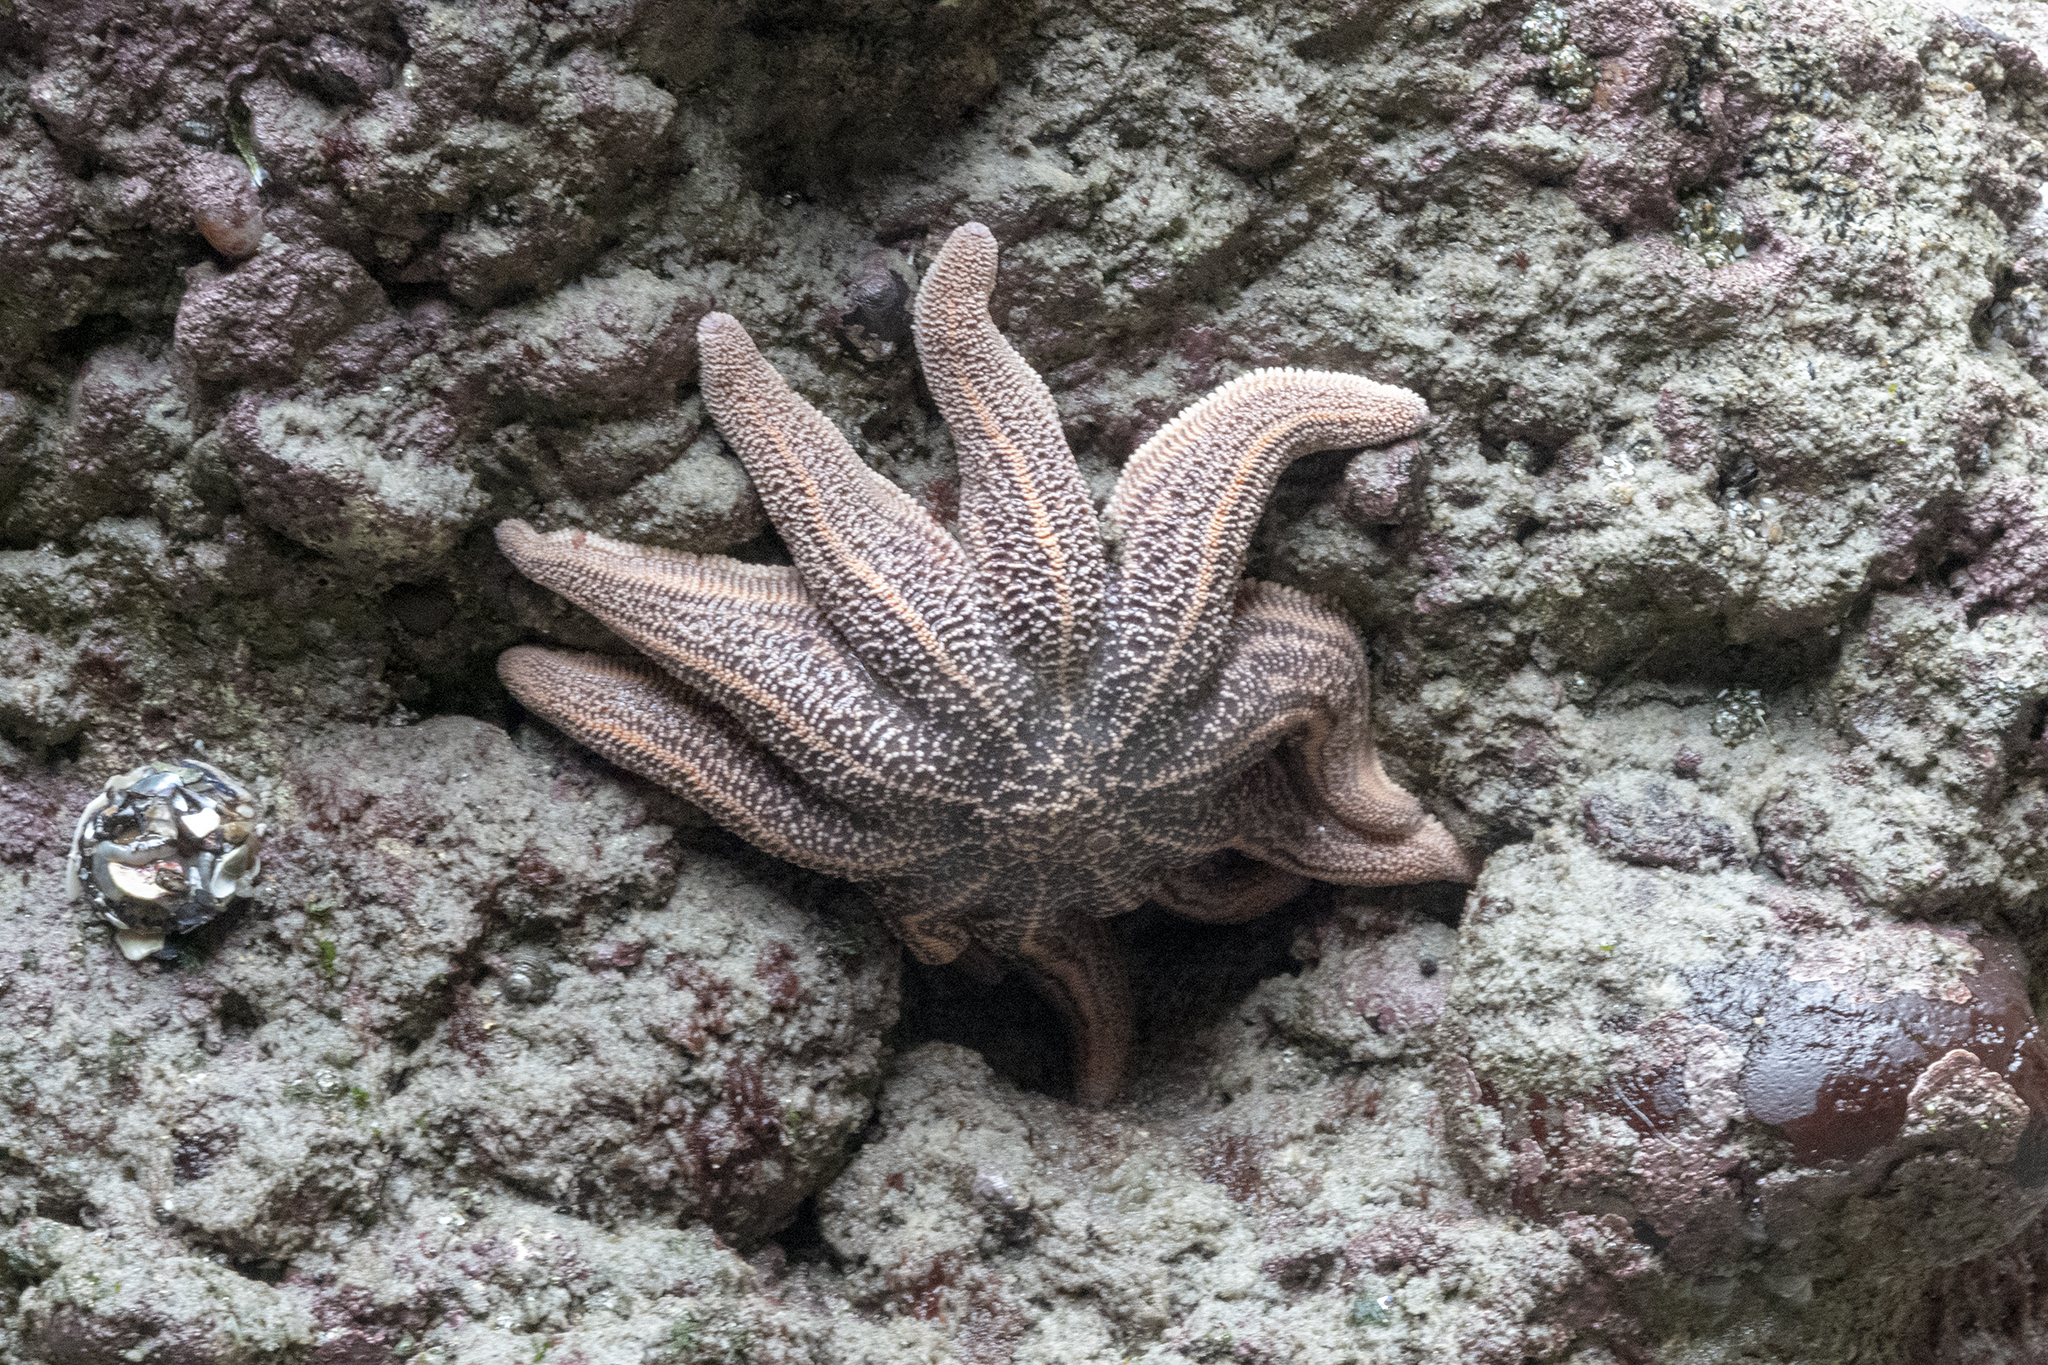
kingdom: Animalia
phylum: Echinodermata
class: Asteroidea
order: Forcipulatida
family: Stichasteridae
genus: Stichaster
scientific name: Stichaster australis
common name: Reef starfish
